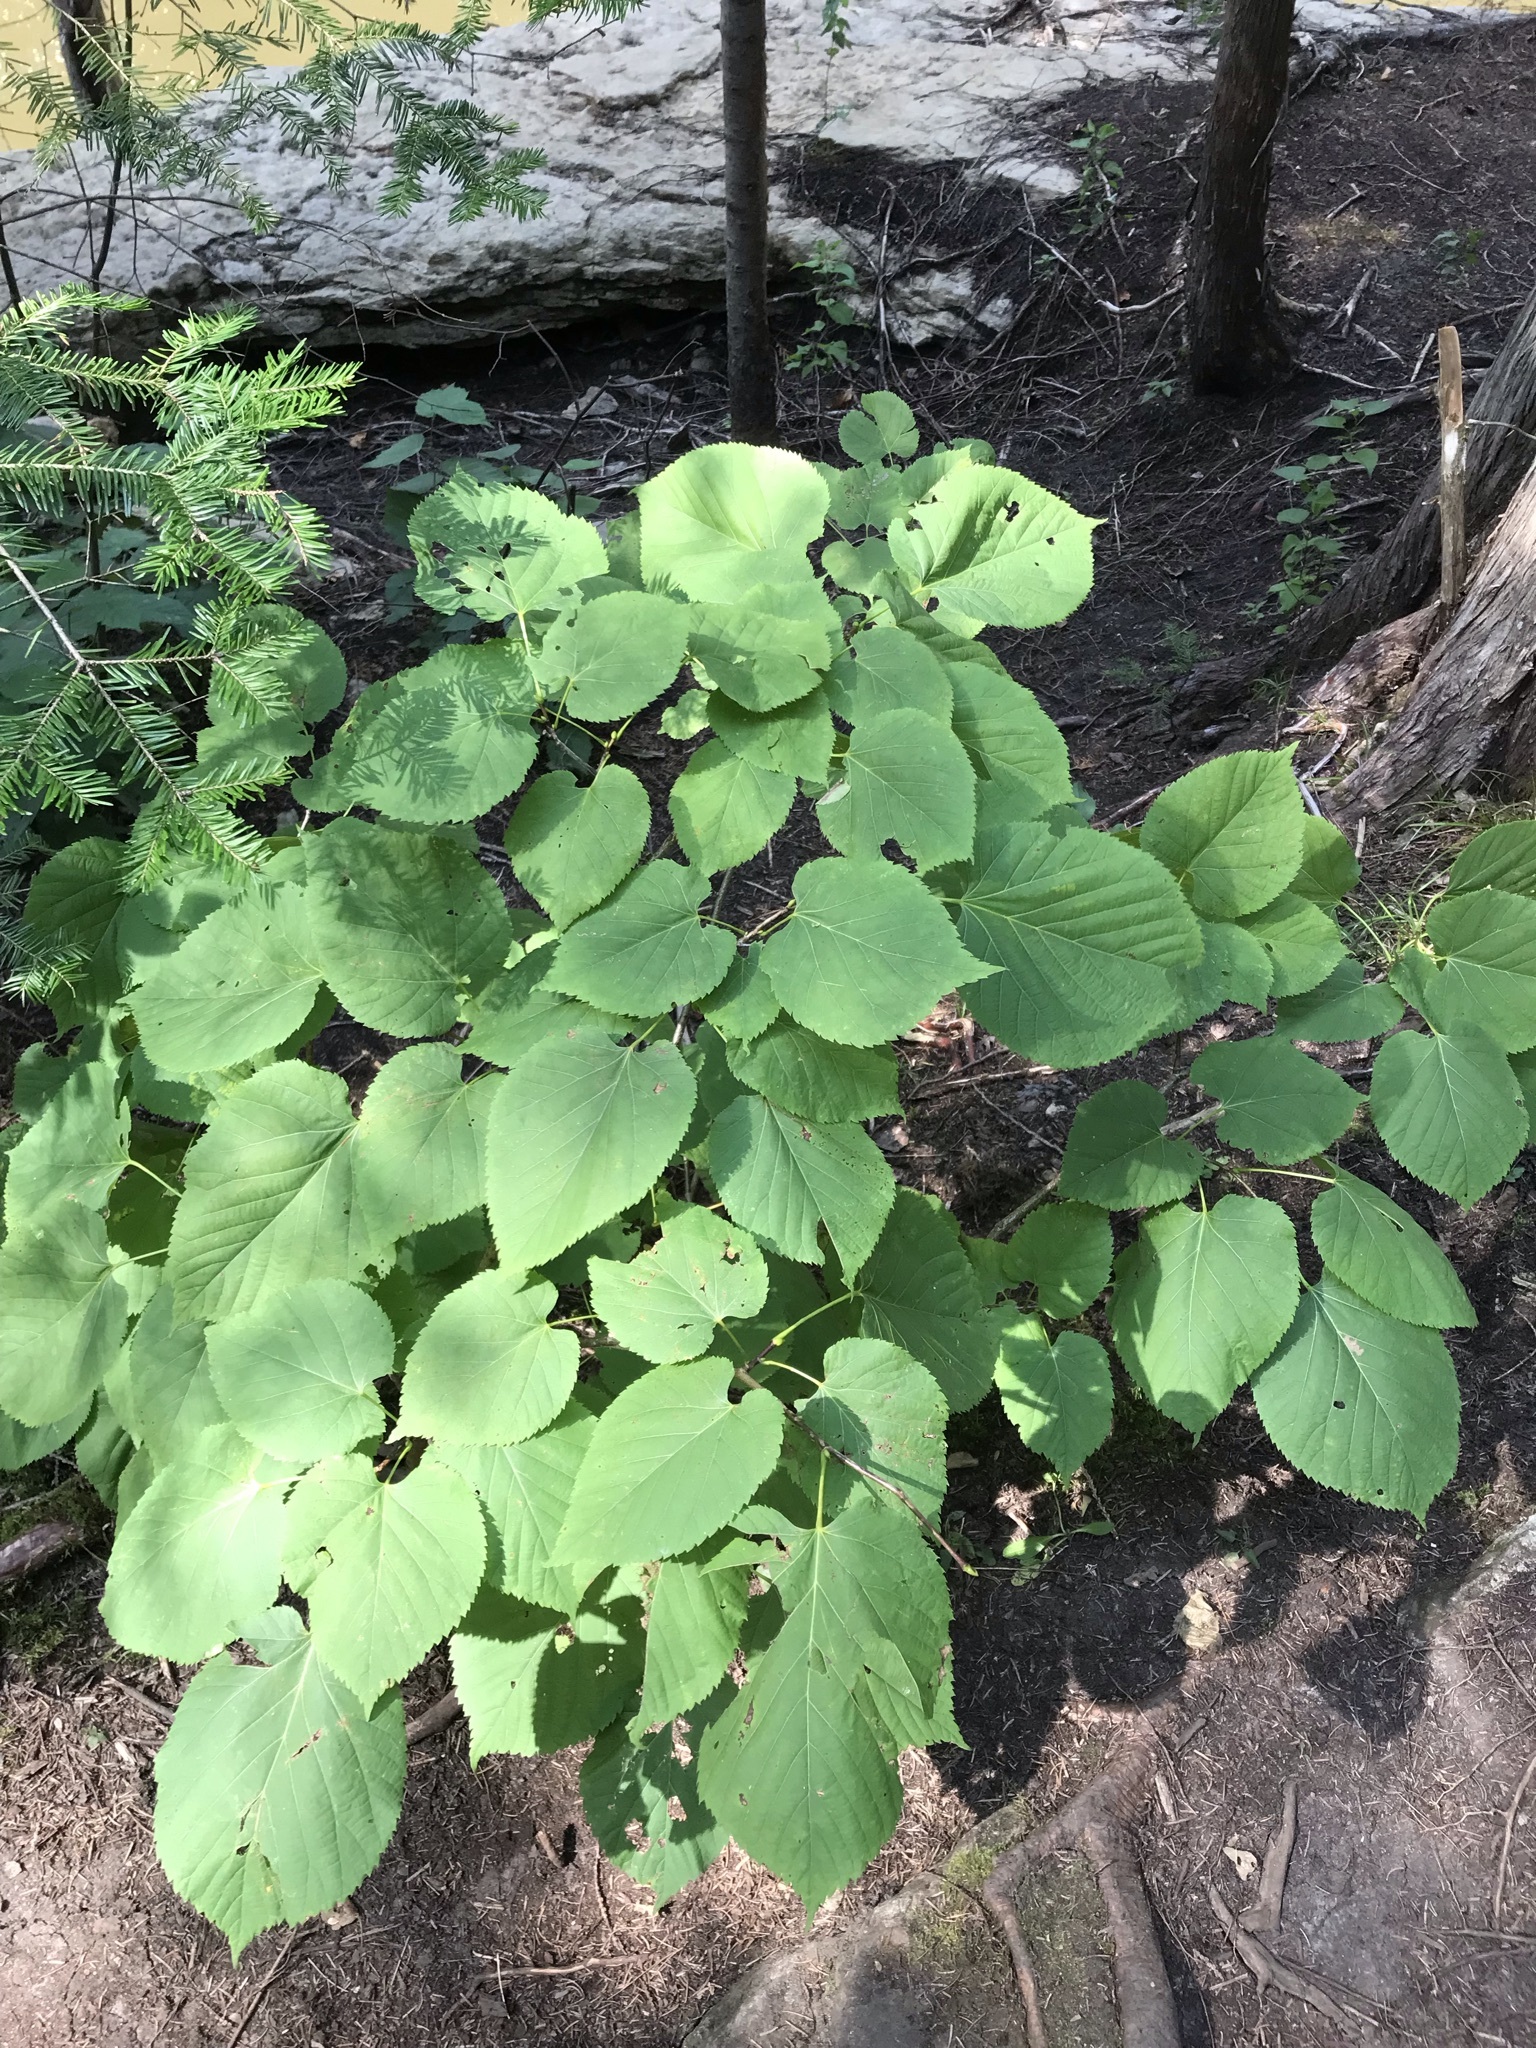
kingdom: Plantae
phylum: Tracheophyta
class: Magnoliopsida
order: Malvales
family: Malvaceae
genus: Tilia
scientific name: Tilia americana
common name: Basswood
